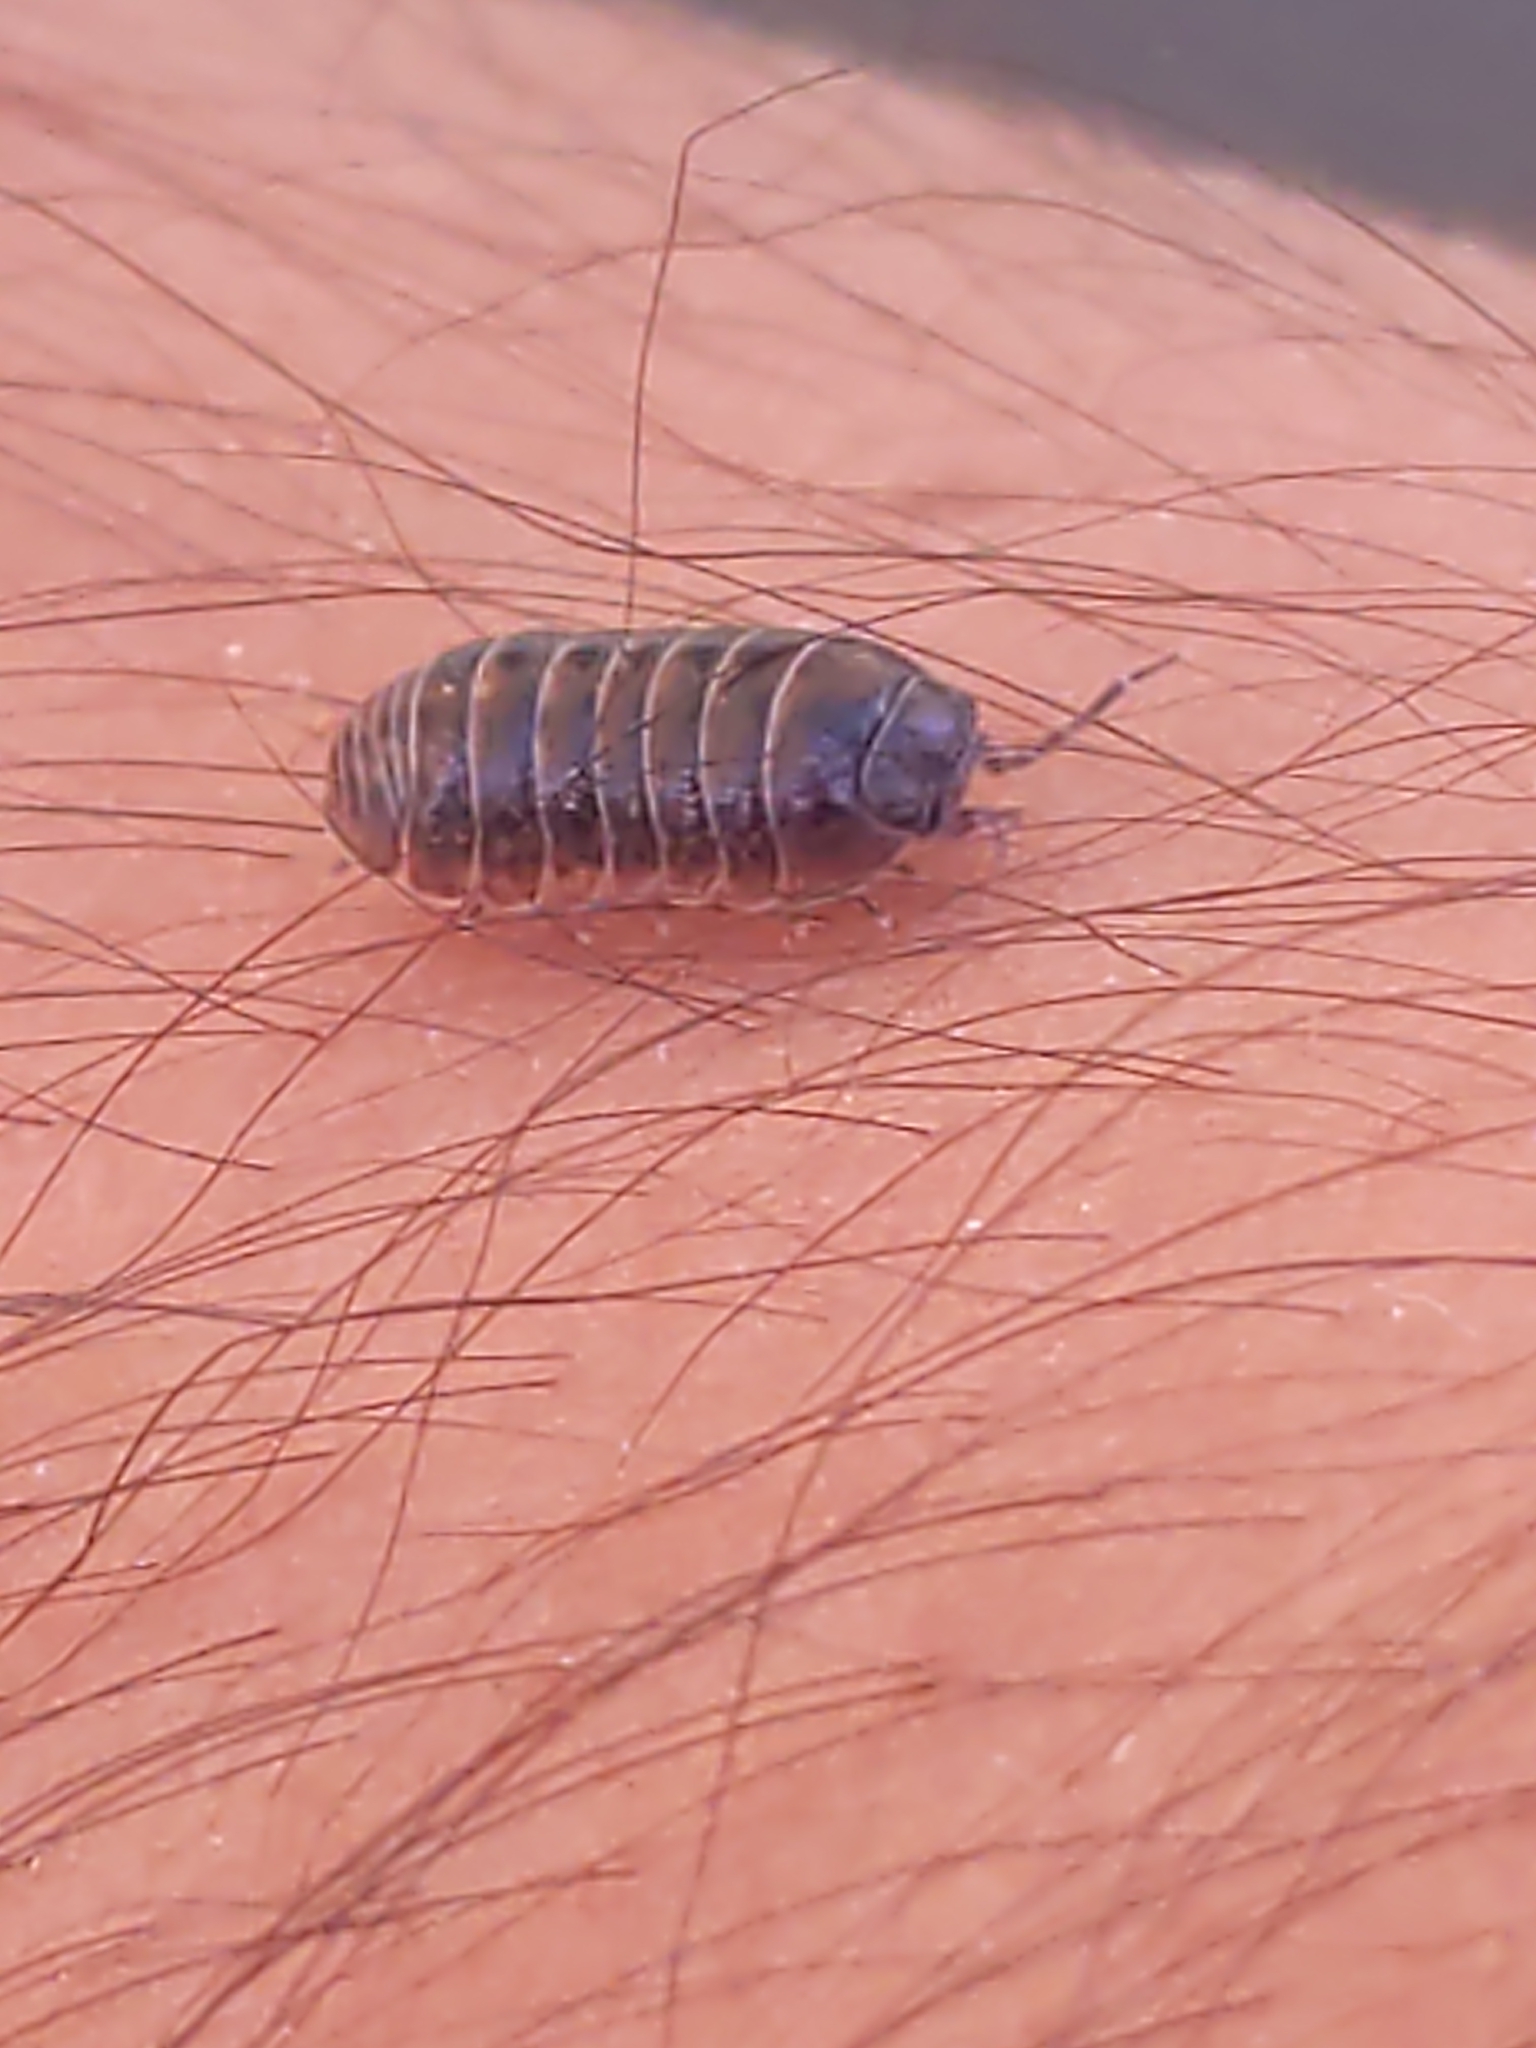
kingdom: Animalia
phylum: Arthropoda
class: Malacostraca
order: Isopoda
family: Armadillidiidae
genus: Armadillidium
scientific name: Armadillidium vulgare
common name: Common pill woodlouse
